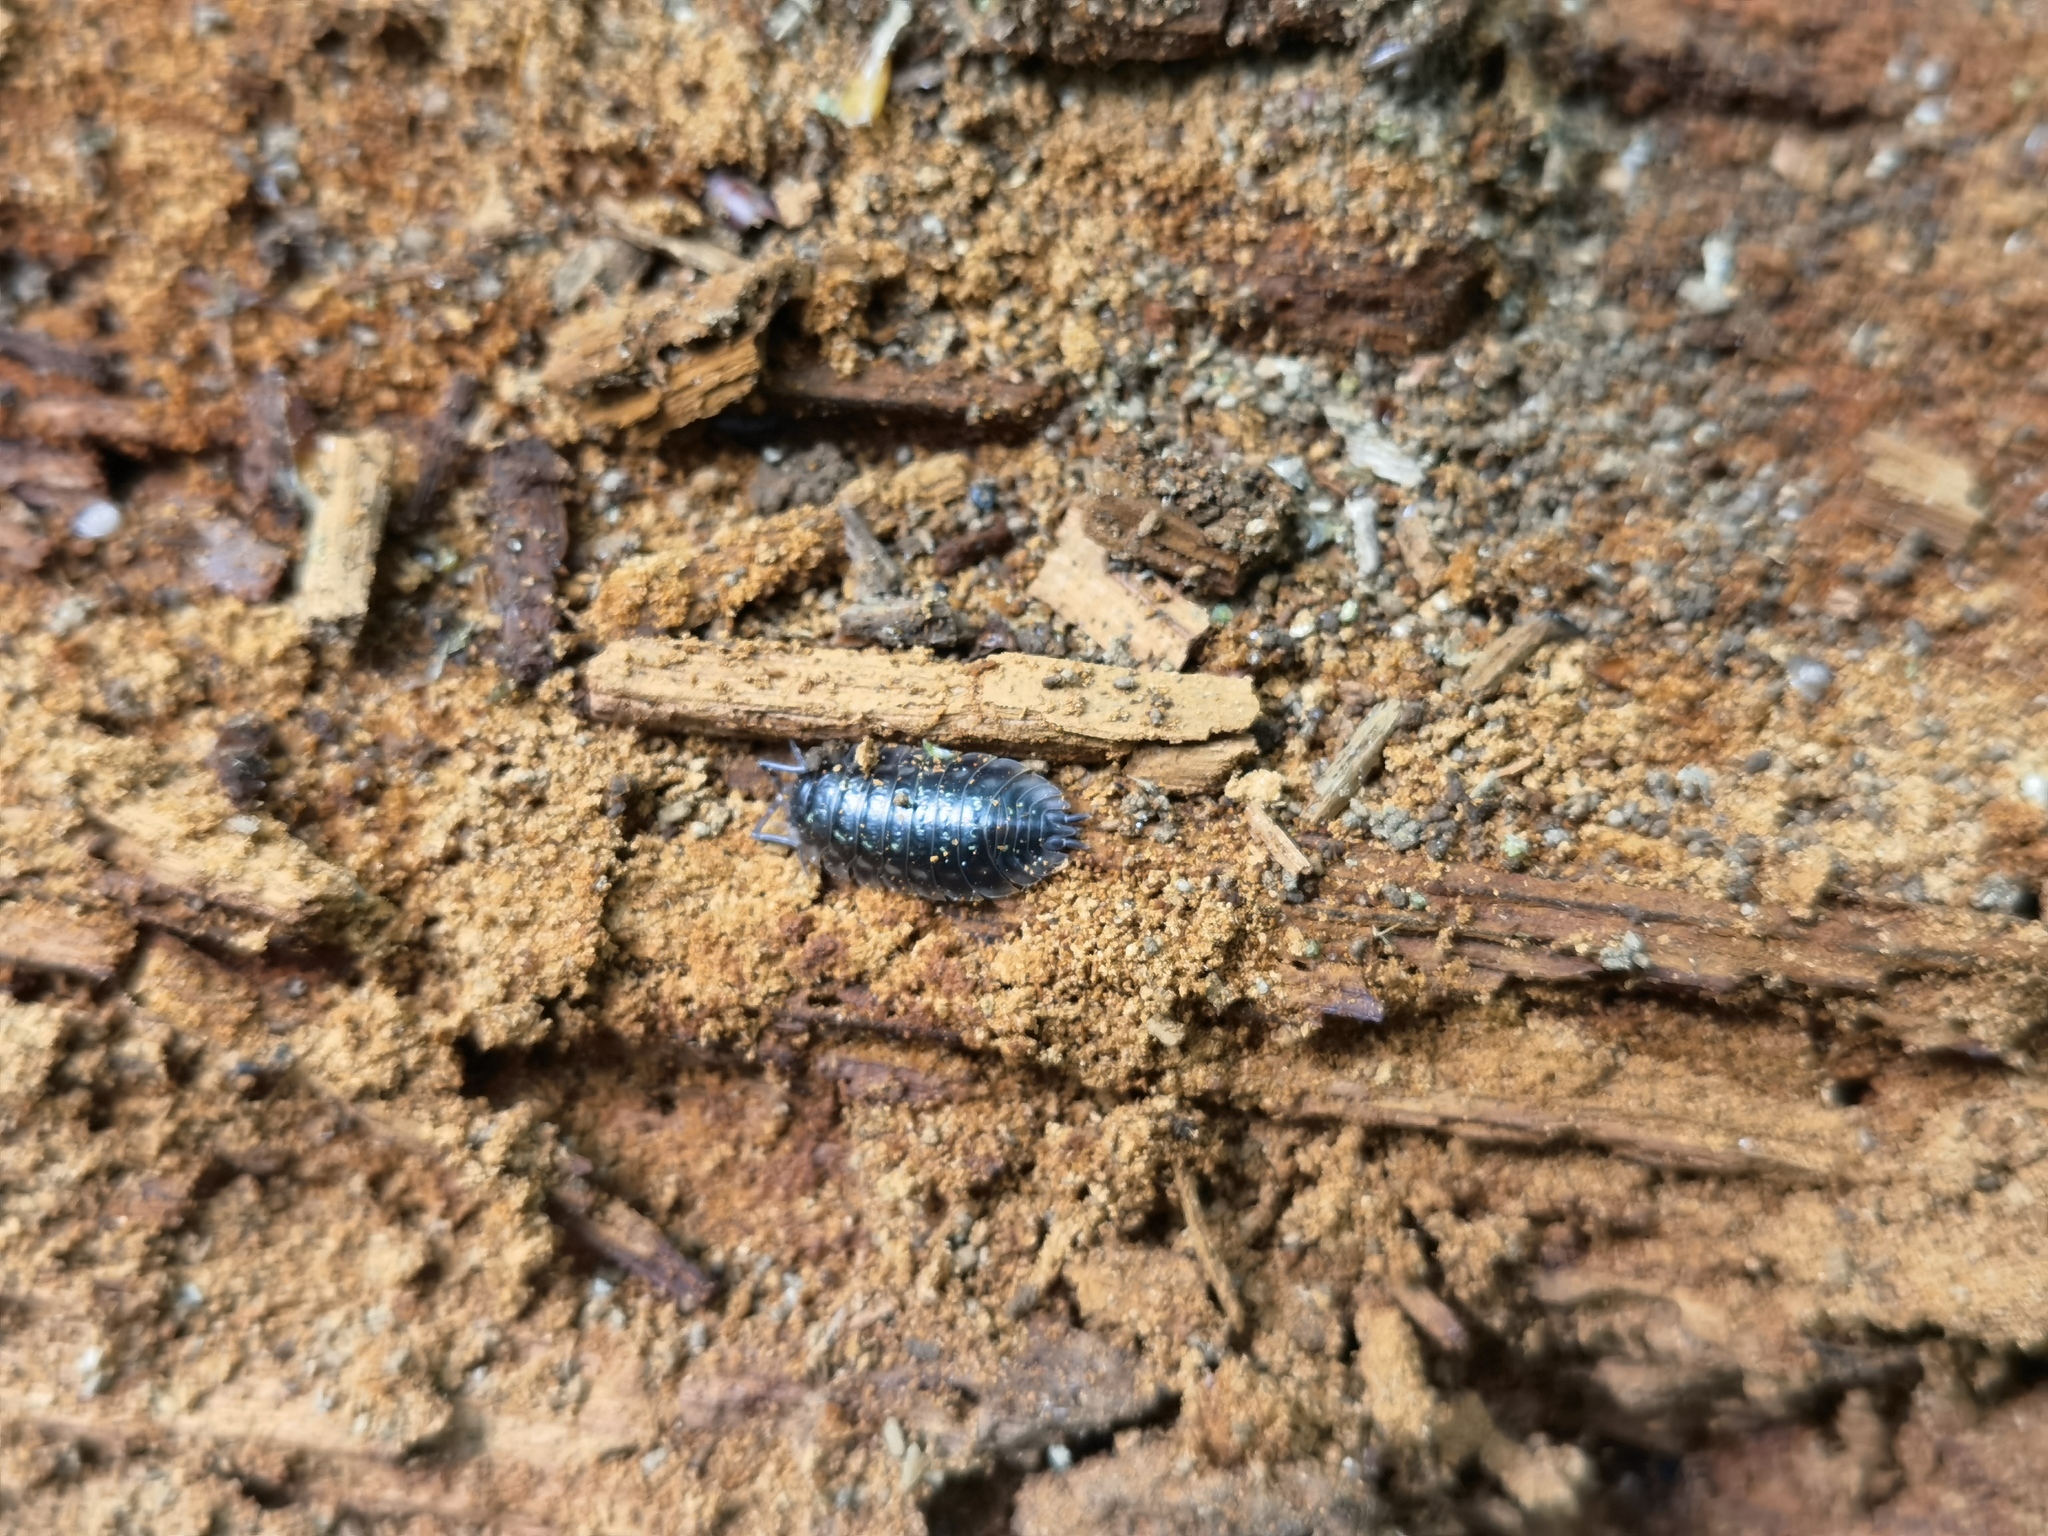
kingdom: Animalia
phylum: Arthropoda
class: Malacostraca
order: Isopoda
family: Oniscidae
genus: Oniscus
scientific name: Oniscus asellus
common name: Common shiny woodlouse
